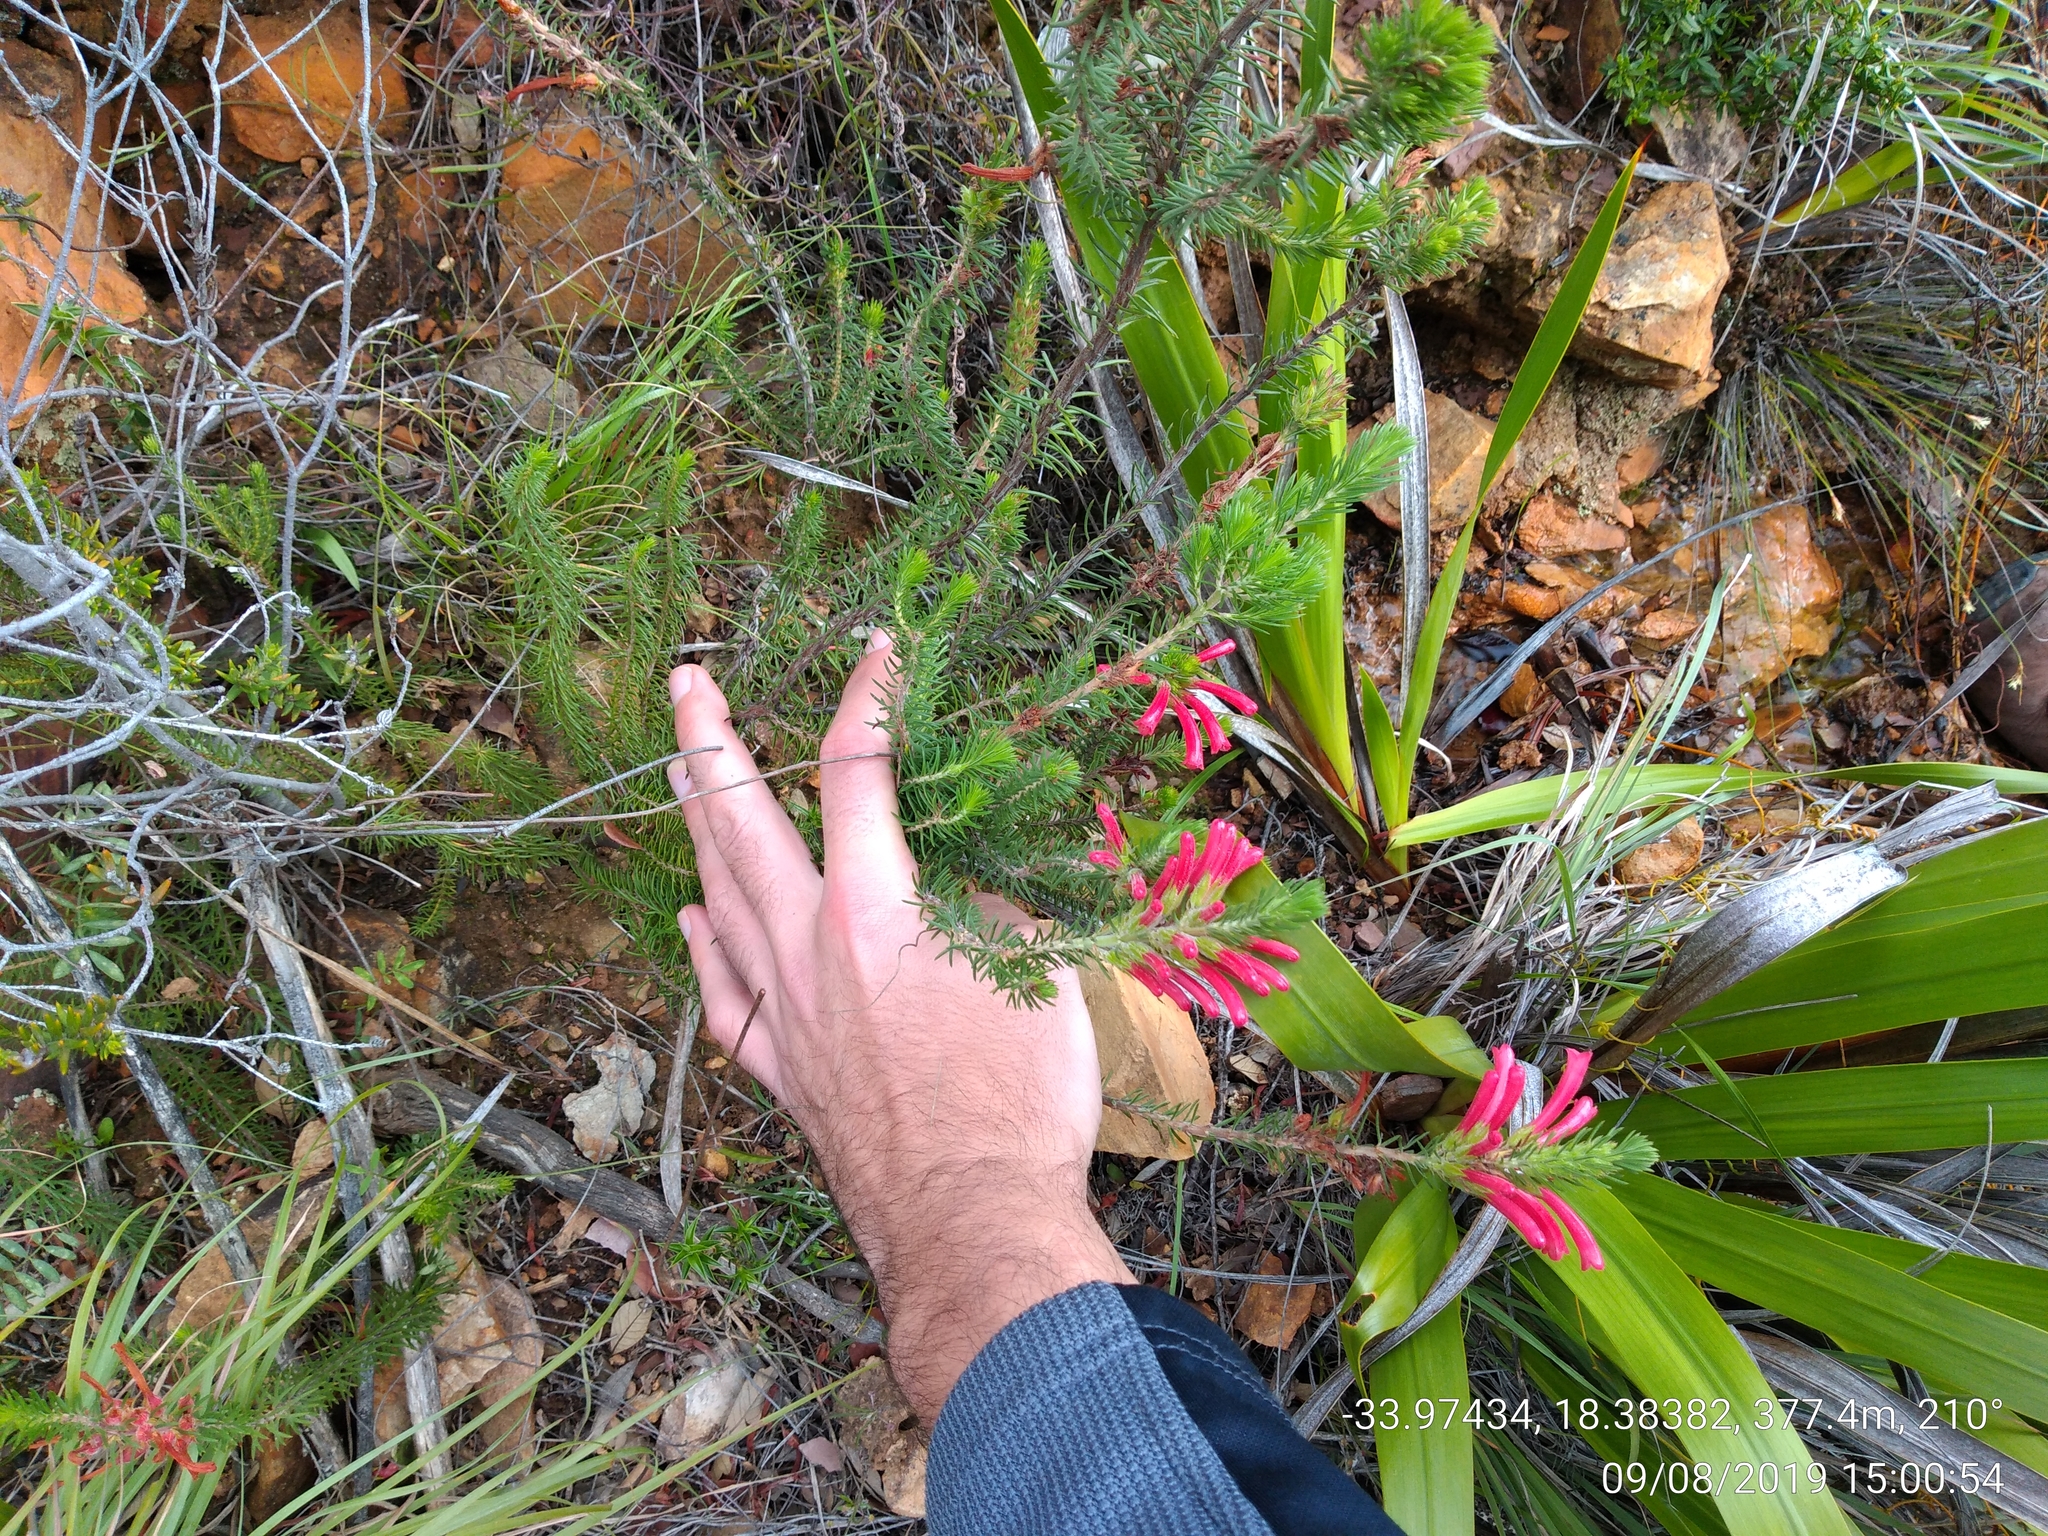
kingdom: Plantae
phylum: Tracheophyta
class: Magnoliopsida
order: Ericales
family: Ericaceae
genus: Erica
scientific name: Erica abietina
